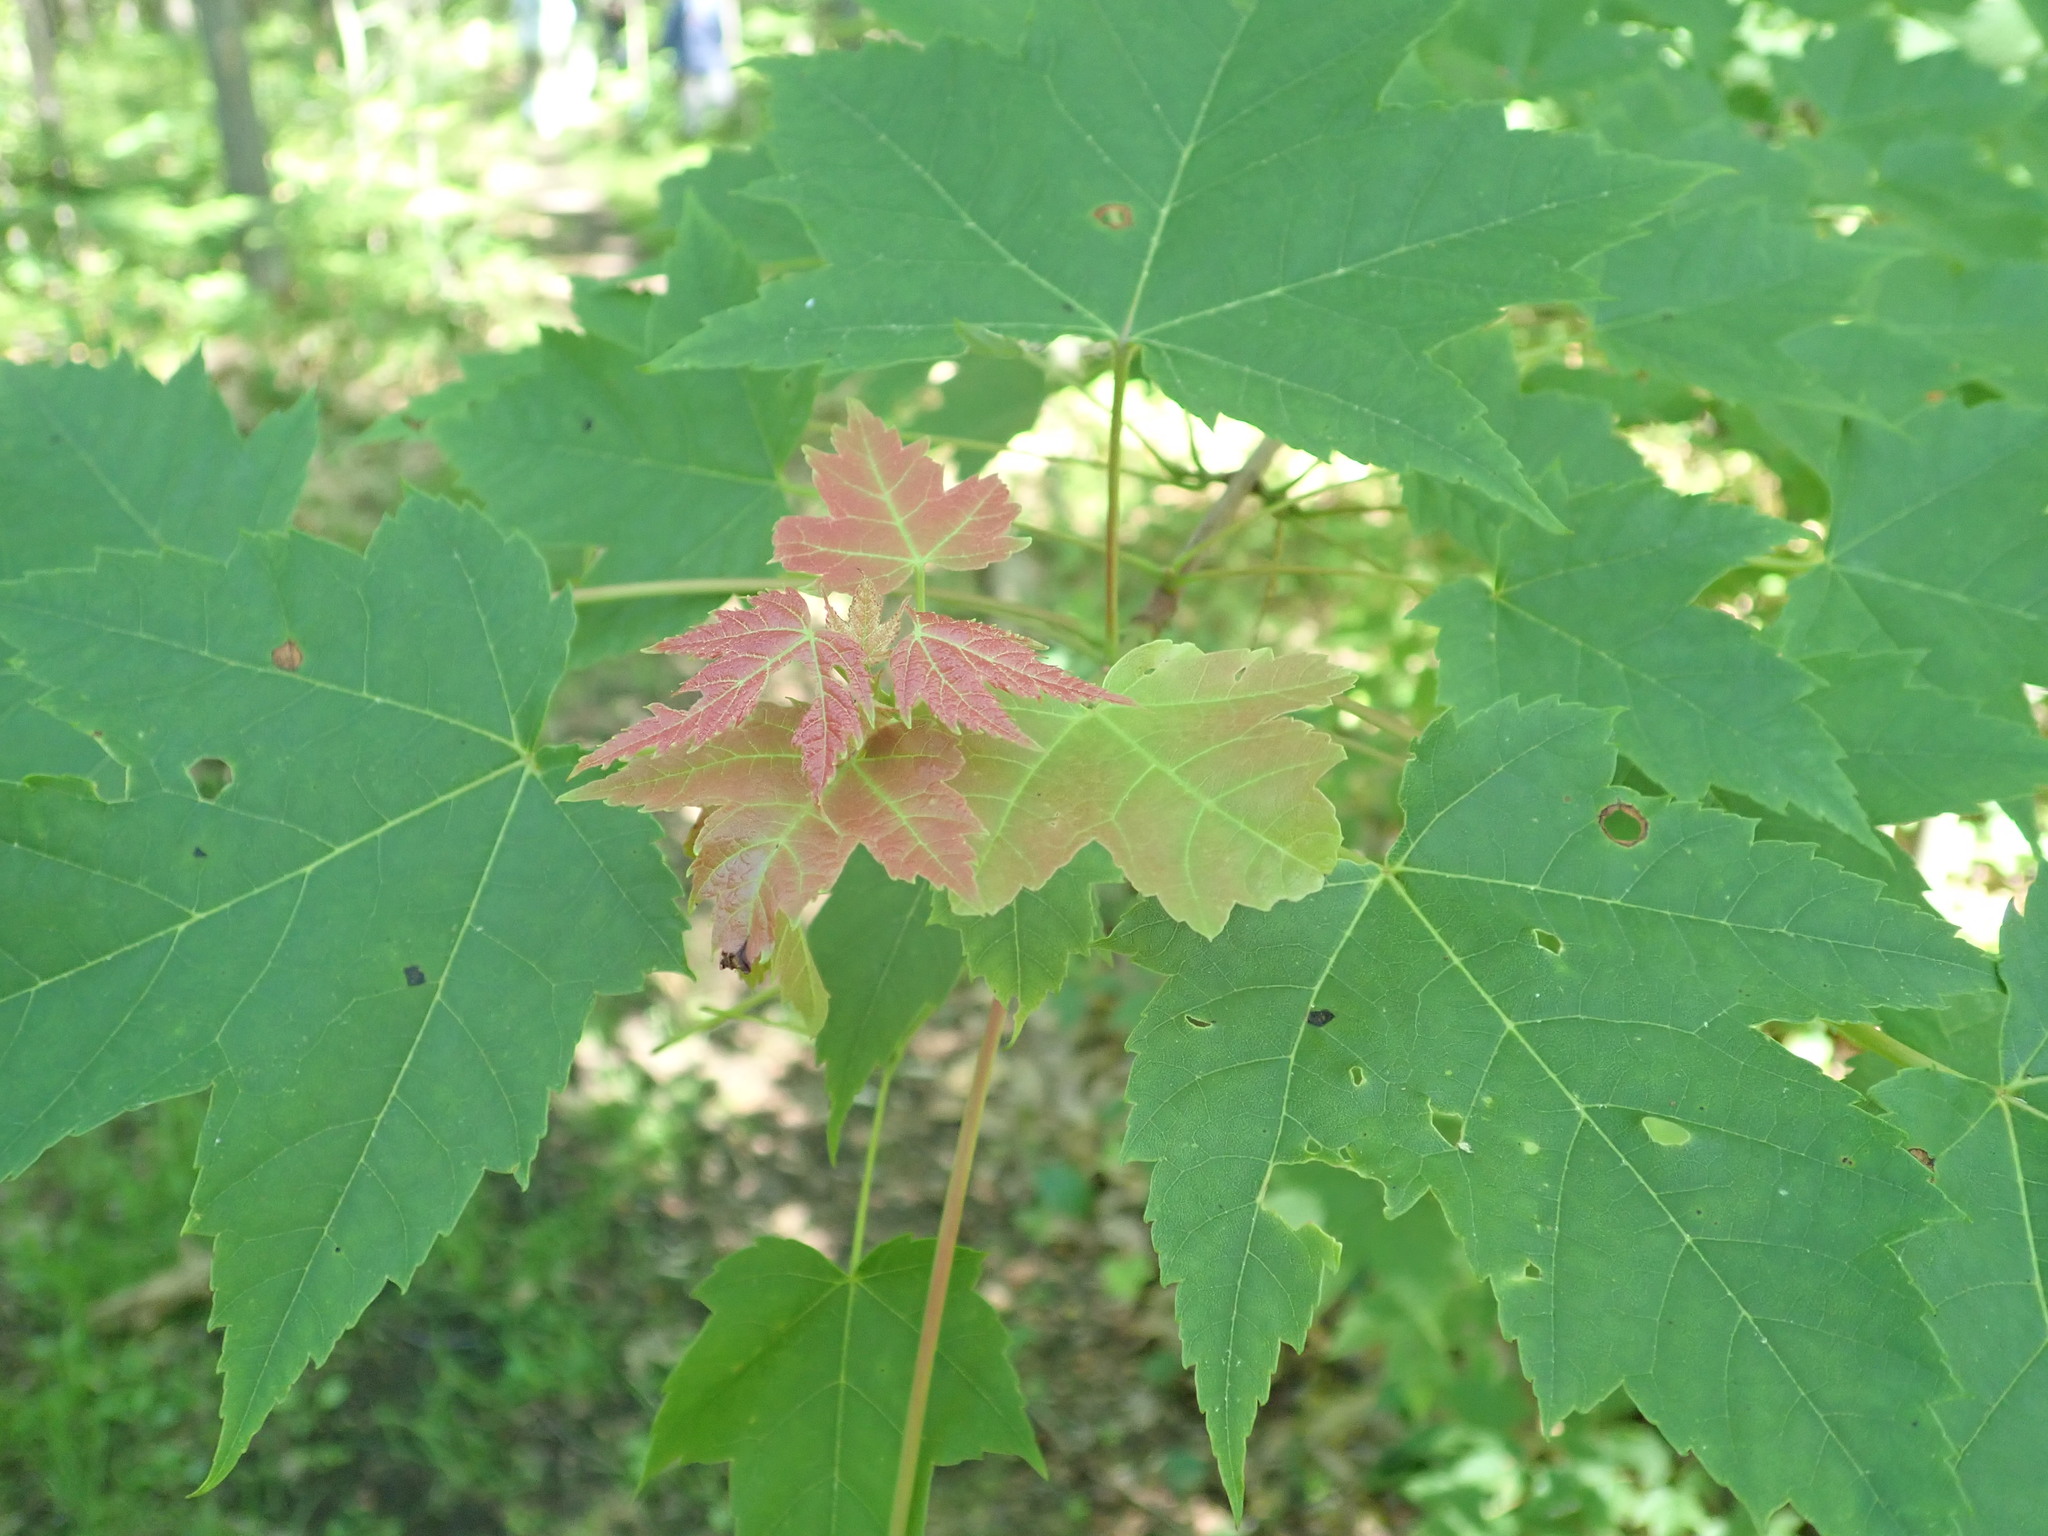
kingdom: Plantae
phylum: Tracheophyta
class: Magnoliopsida
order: Sapindales
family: Sapindaceae
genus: Acer
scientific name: Acer rubrum
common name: Red maple
